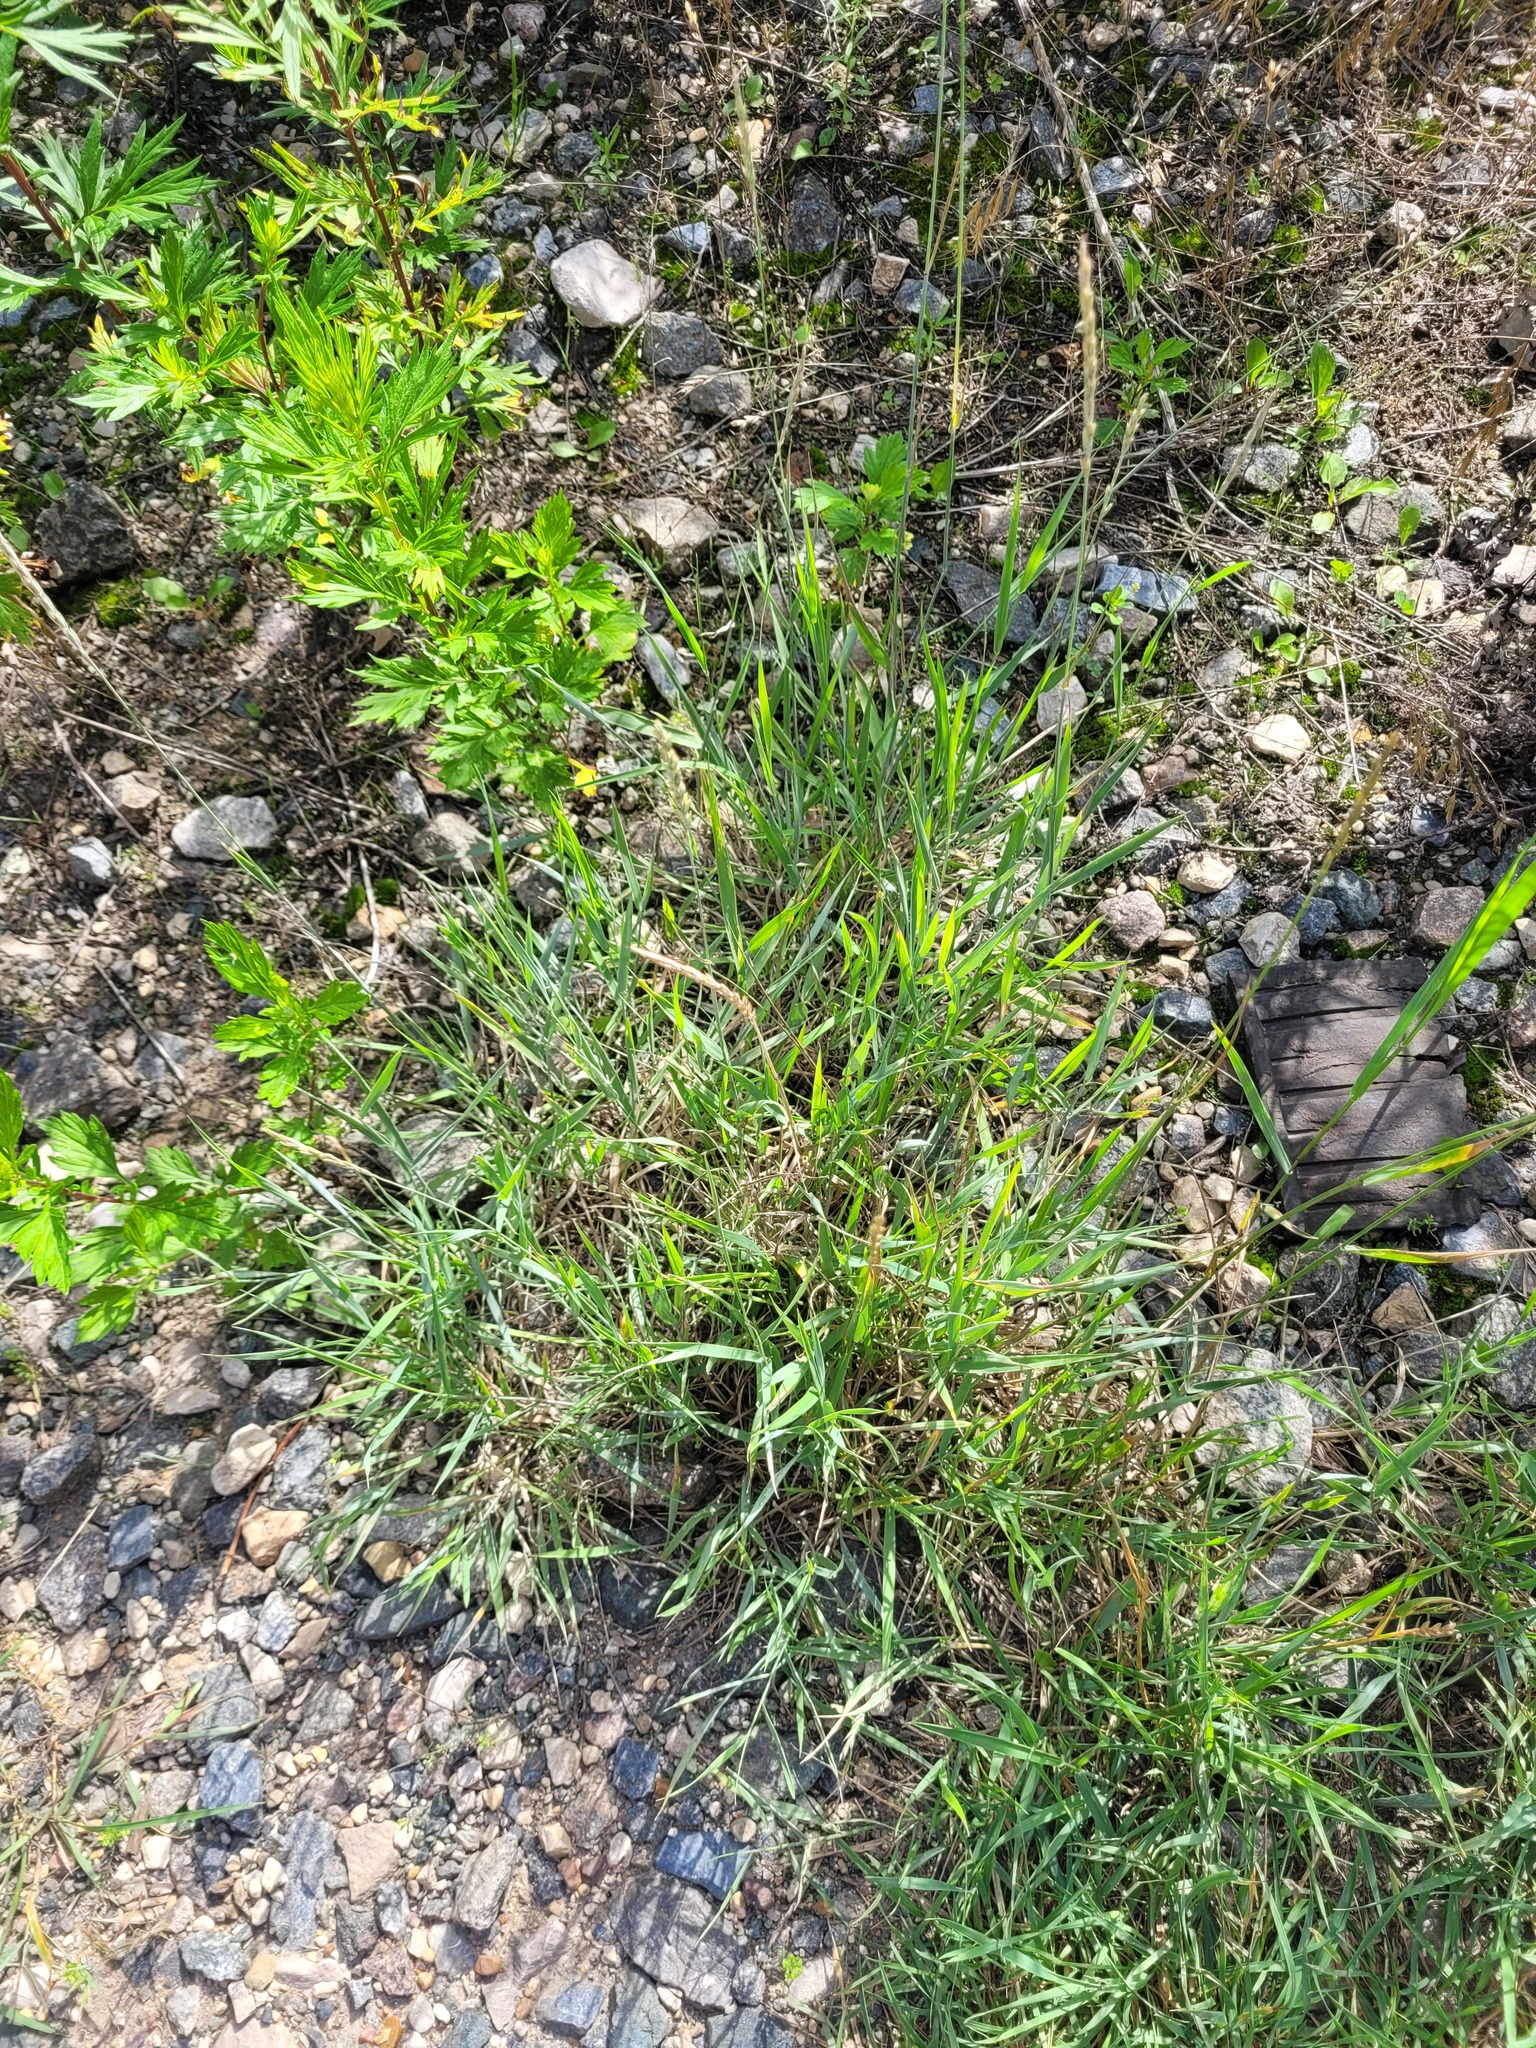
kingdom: Plantae
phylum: Tracheophyta
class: Liliopsida
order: Poales
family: Poaceae
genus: Elymus
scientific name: Elymus repens
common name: Quackgrass
